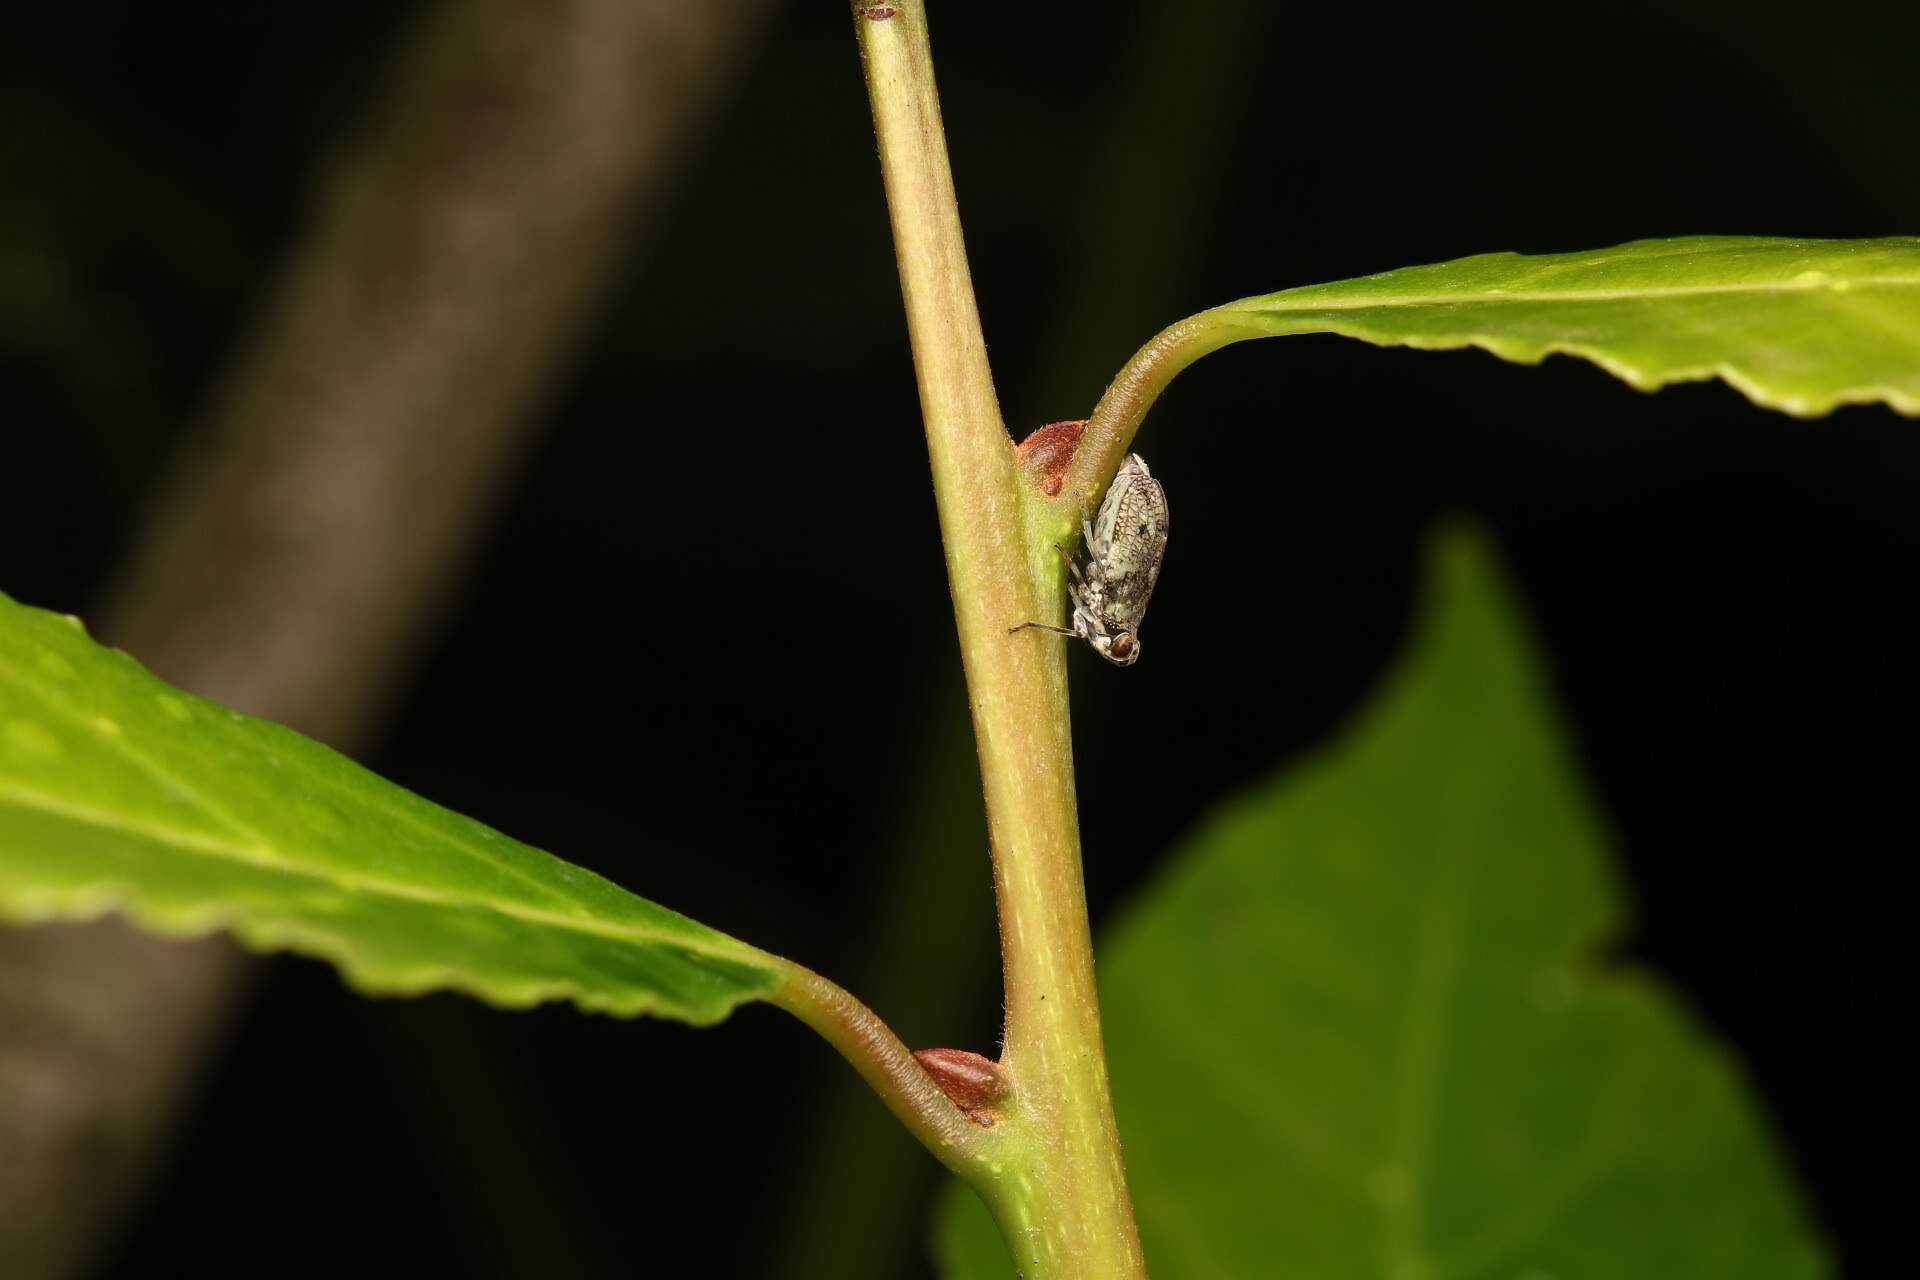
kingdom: Animalia
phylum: Arthropoda
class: Insecta
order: Hemiptera
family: Issidae
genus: Issus
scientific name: Issus coleoptratus
